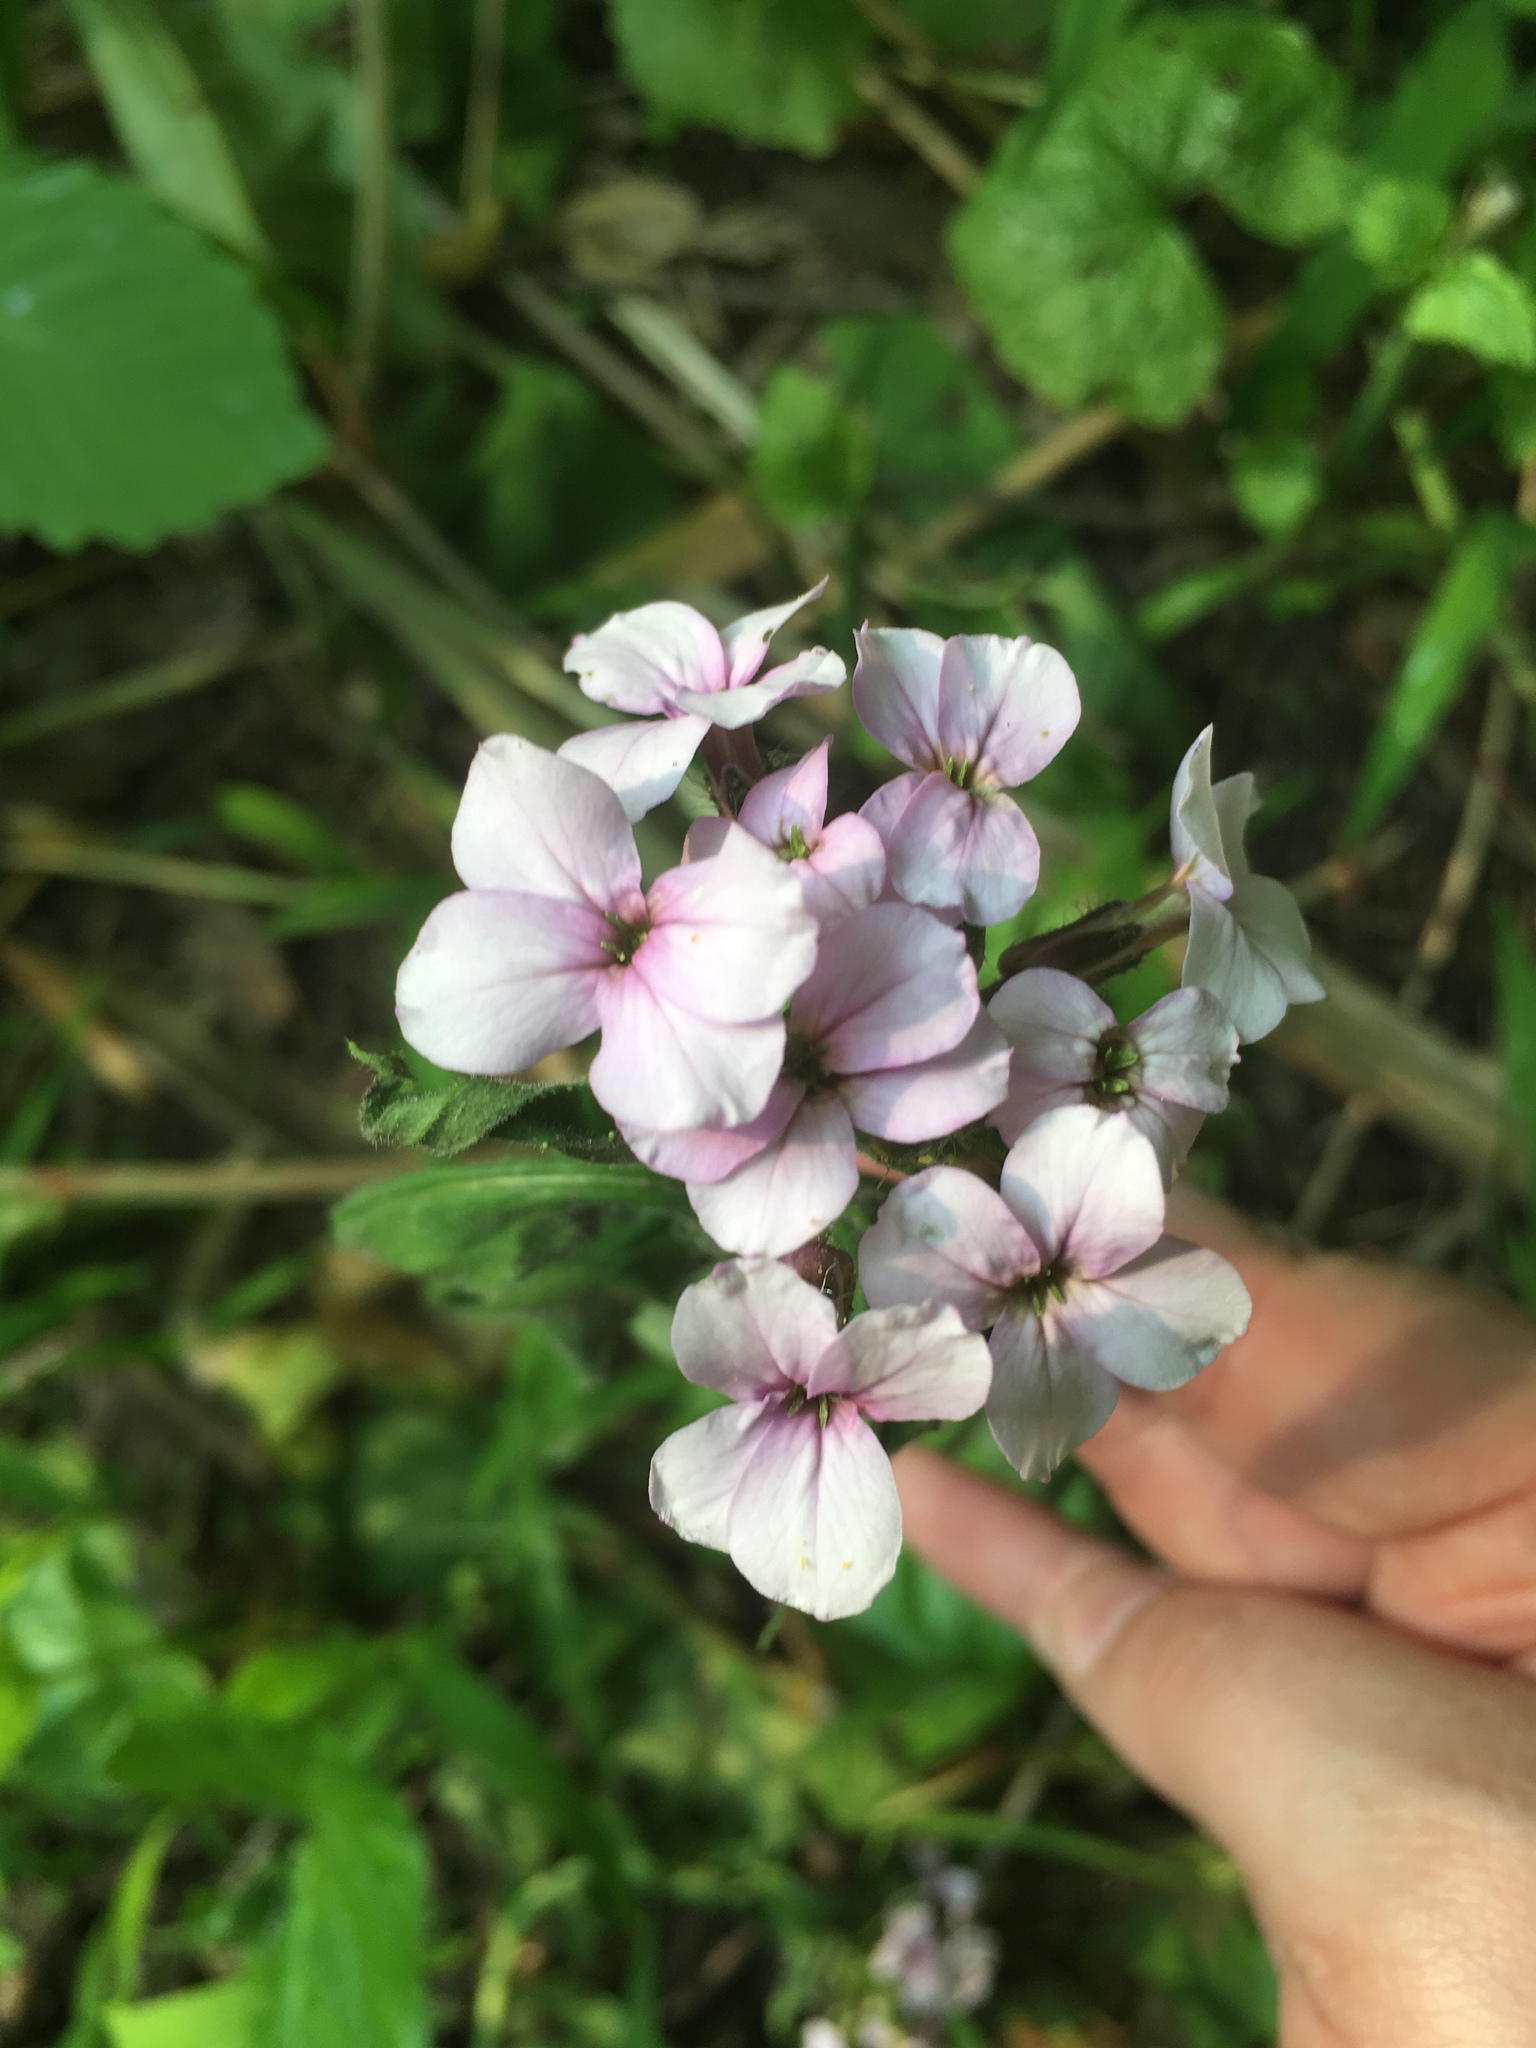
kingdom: Plantae
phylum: Tracheophyta
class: Magnoliopsida
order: Brassicales
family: Brassicaceae
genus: Hesperis
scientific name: Hesperis matronalis
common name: Dame's-violet
